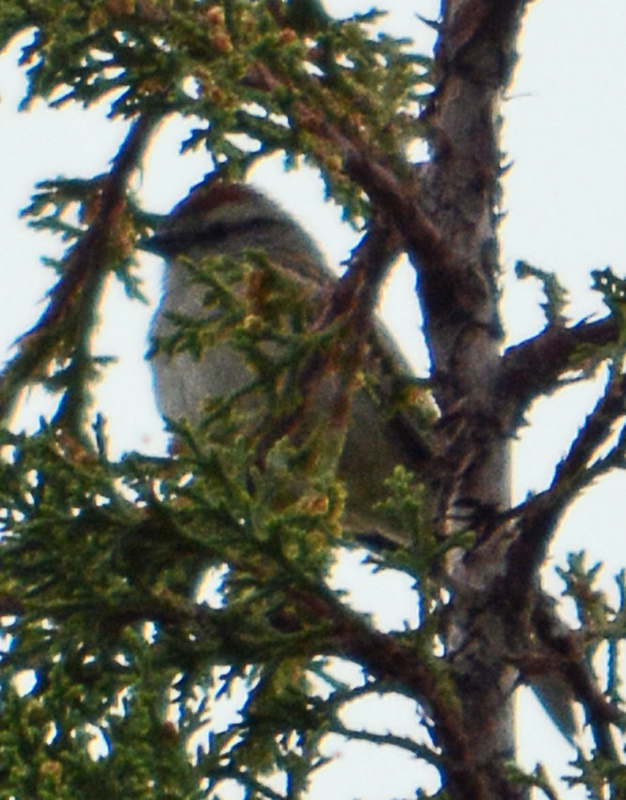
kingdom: Animalia
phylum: Chordata
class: Aves
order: Passeriformes
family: Passerellidae
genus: Spizella
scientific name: Spizella passerina
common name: Chipping sparrow
